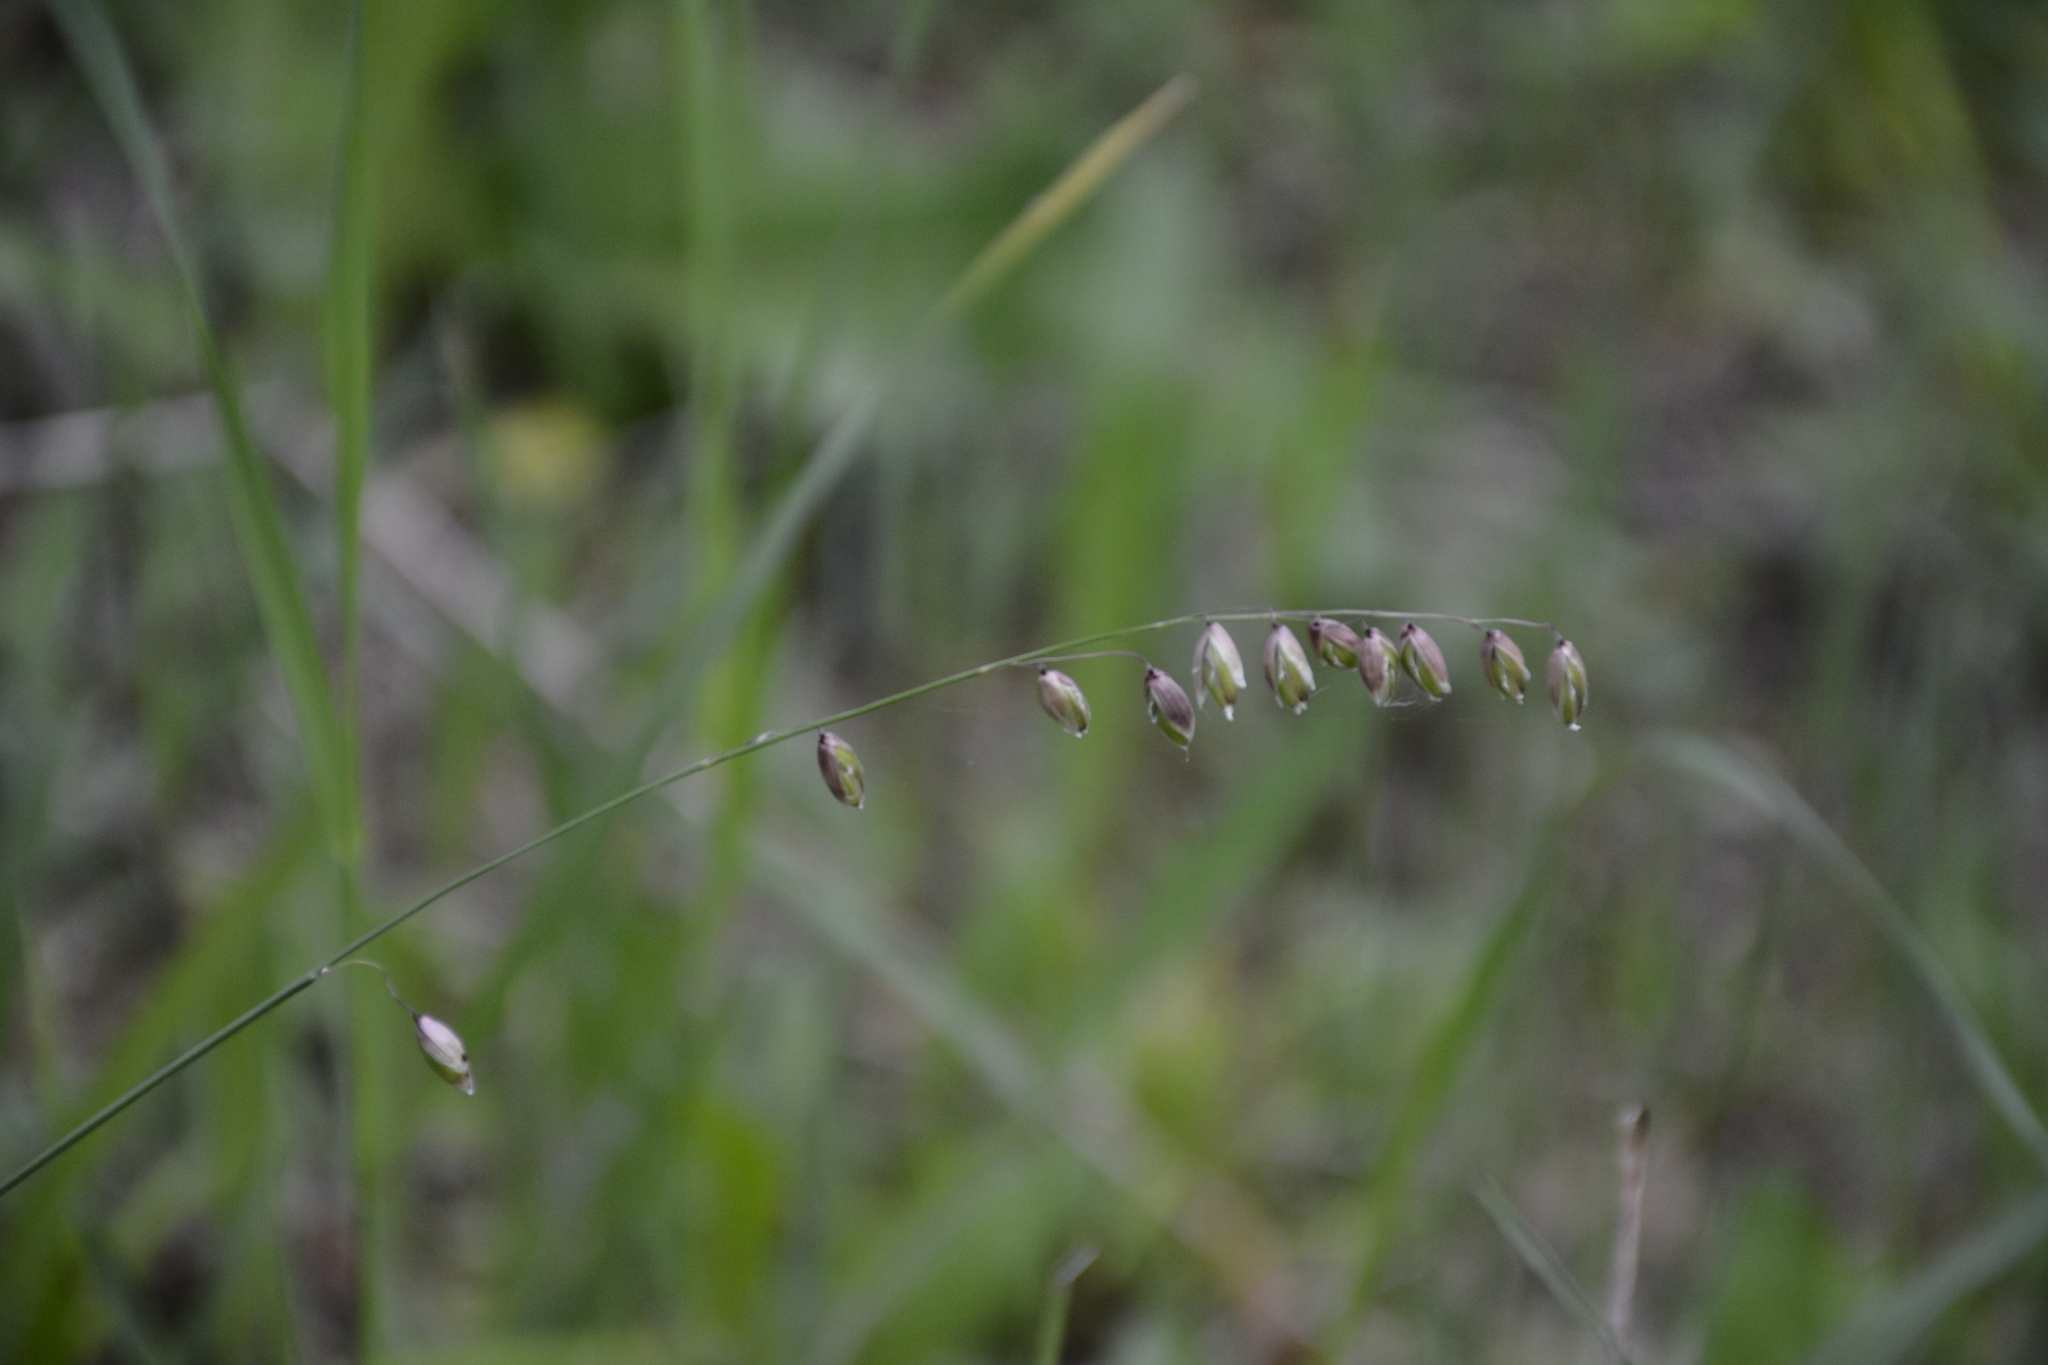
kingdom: Plantae
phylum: Tracheophyta
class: Liliopsida
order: Poales
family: Poaceae
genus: Melica
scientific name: Melica nutans
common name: Mountain melick
